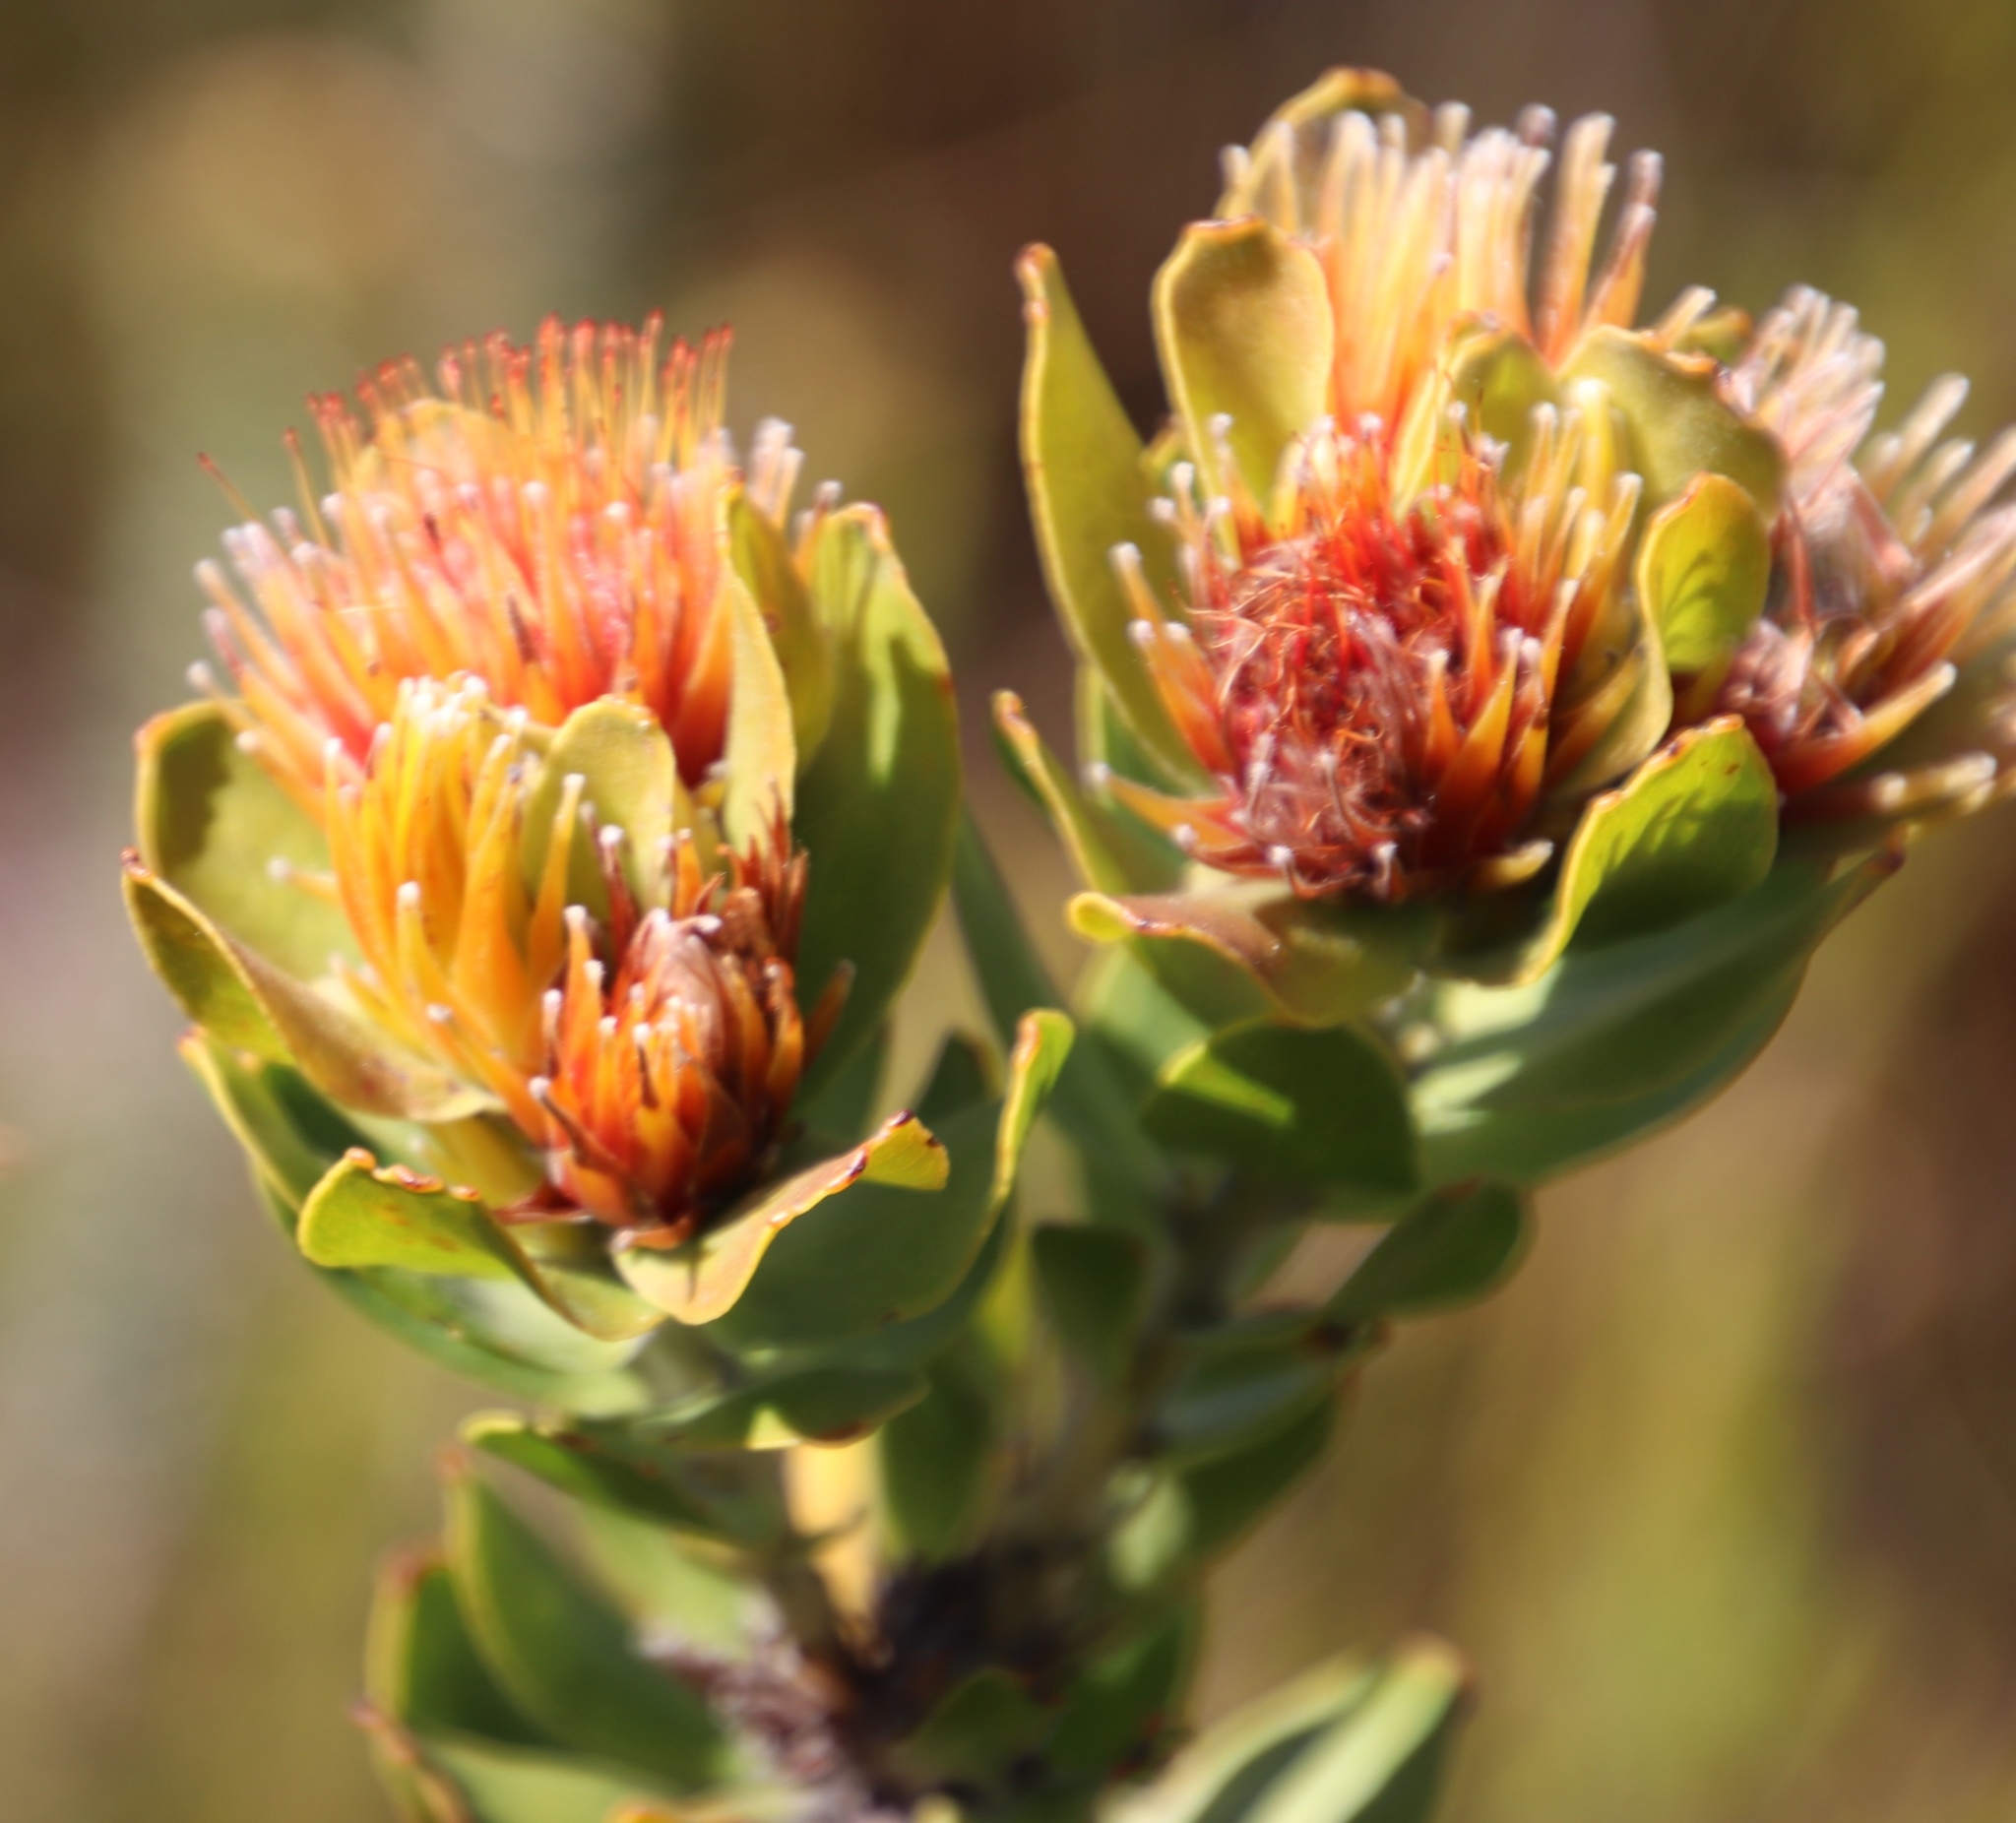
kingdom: Plantae
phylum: Tracheophyta
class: Magnoliopsida
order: Proteales
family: Proteaceae
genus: Leucospermum
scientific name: Leucospermum oleifolium
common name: Matches
